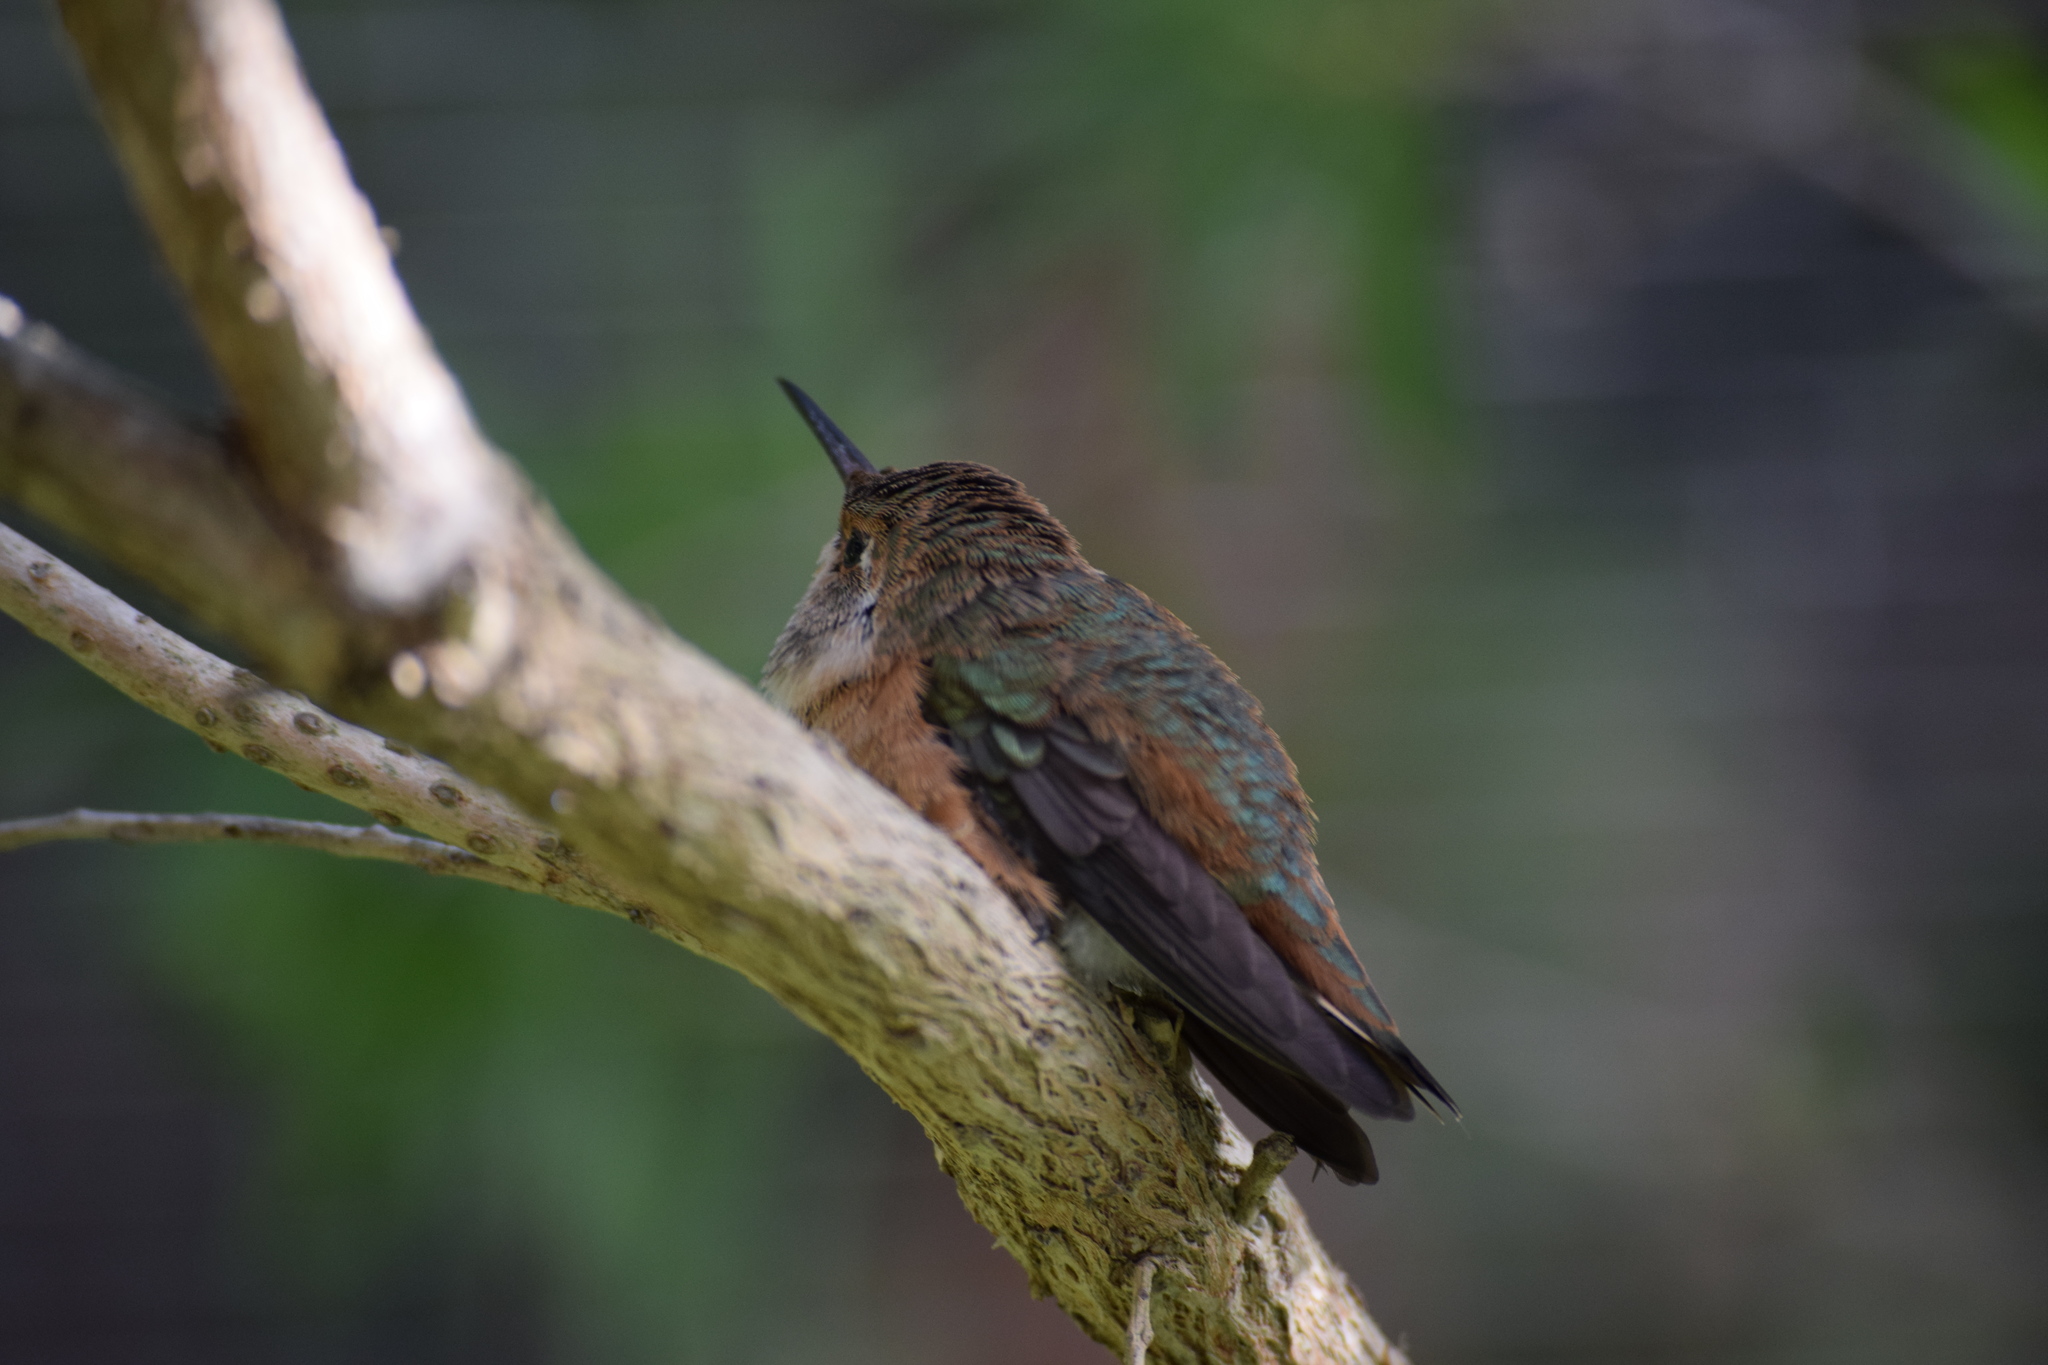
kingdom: Animalia
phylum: Chordata
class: Aves
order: Apodiformes
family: Trochilidae
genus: Selasphorus
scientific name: Selasphorus sasin
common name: Allen's hummingbird
